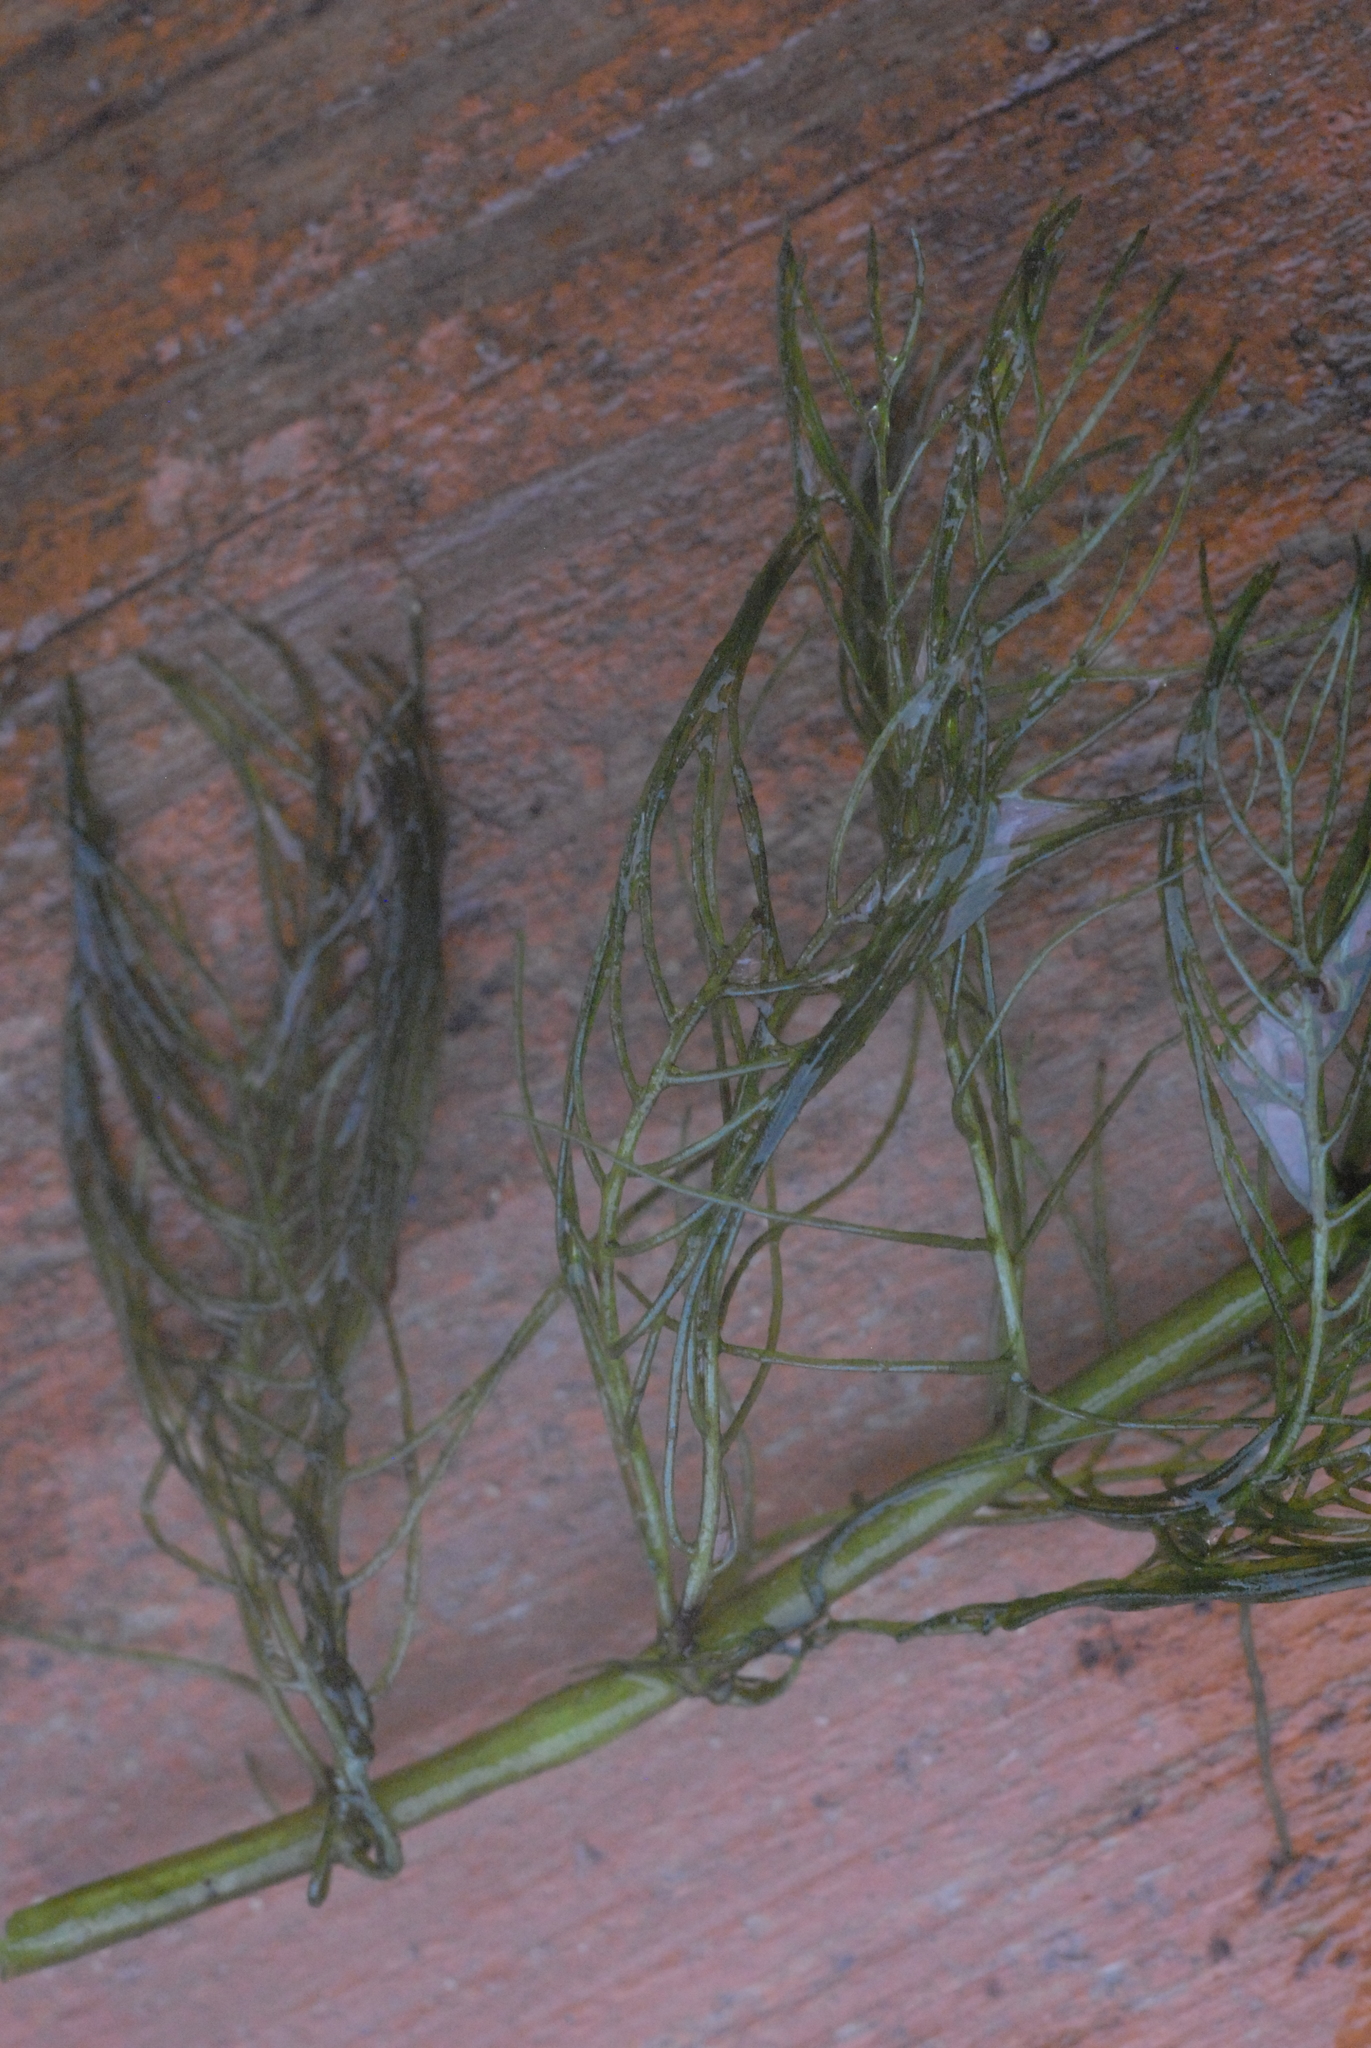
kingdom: Plantae
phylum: Tracheophyta
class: Magnoliopsida
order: Saxifragales
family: Haloragaceae
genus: Myriophyllum
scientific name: Myriophyllum verticillatum
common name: Whorled water-milfoil
